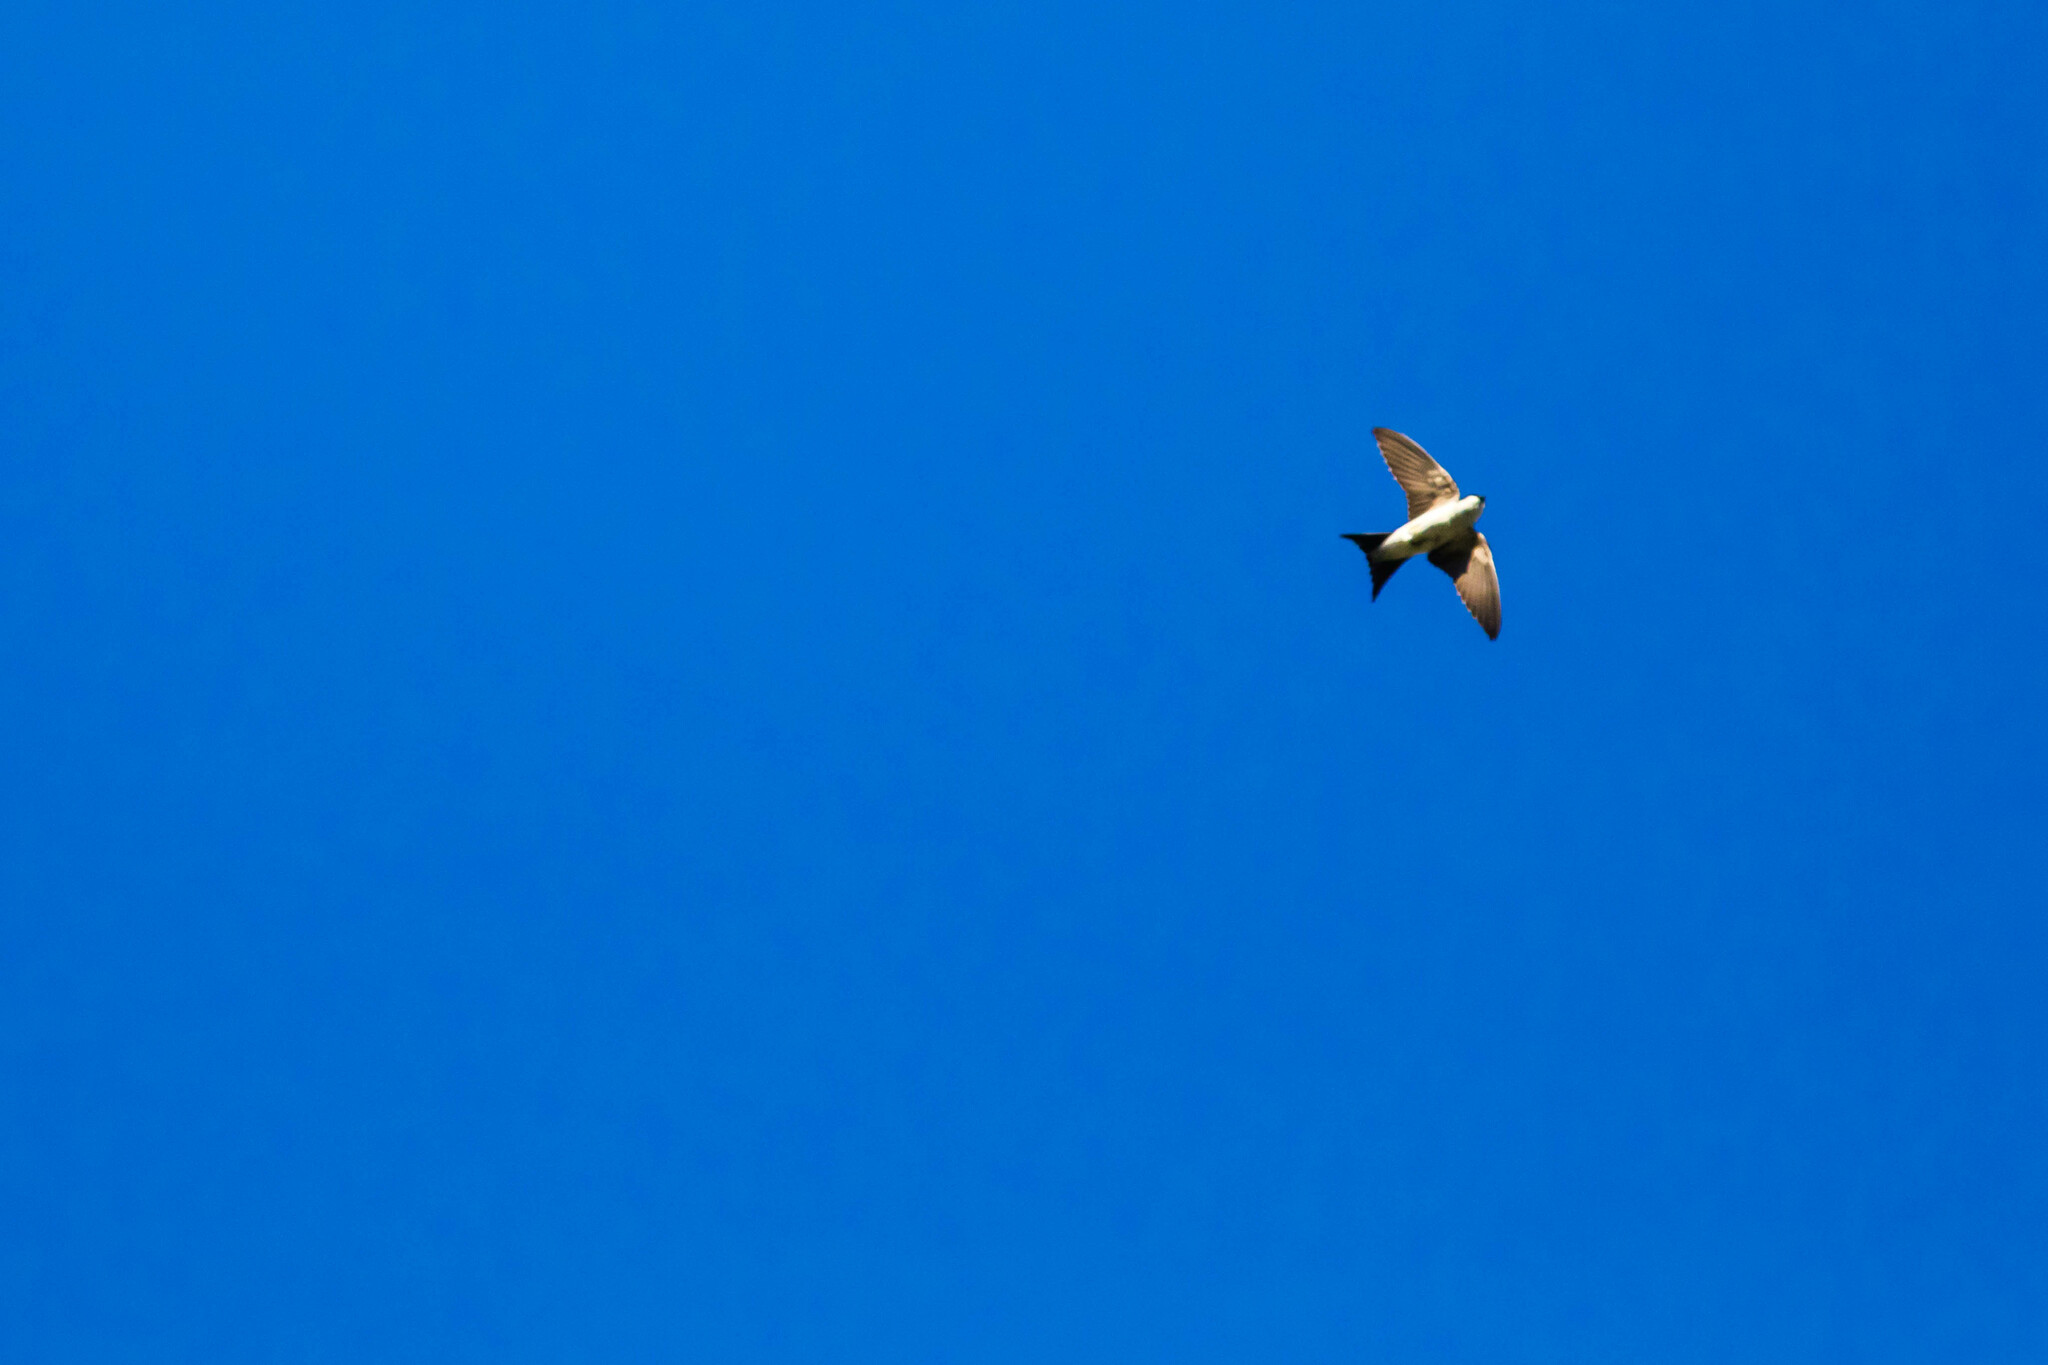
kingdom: Animalia
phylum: Chordata
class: Aves
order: Passeriformes
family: Hirundinidae
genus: Delichon
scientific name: Delichon urbicum
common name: Common house martin
